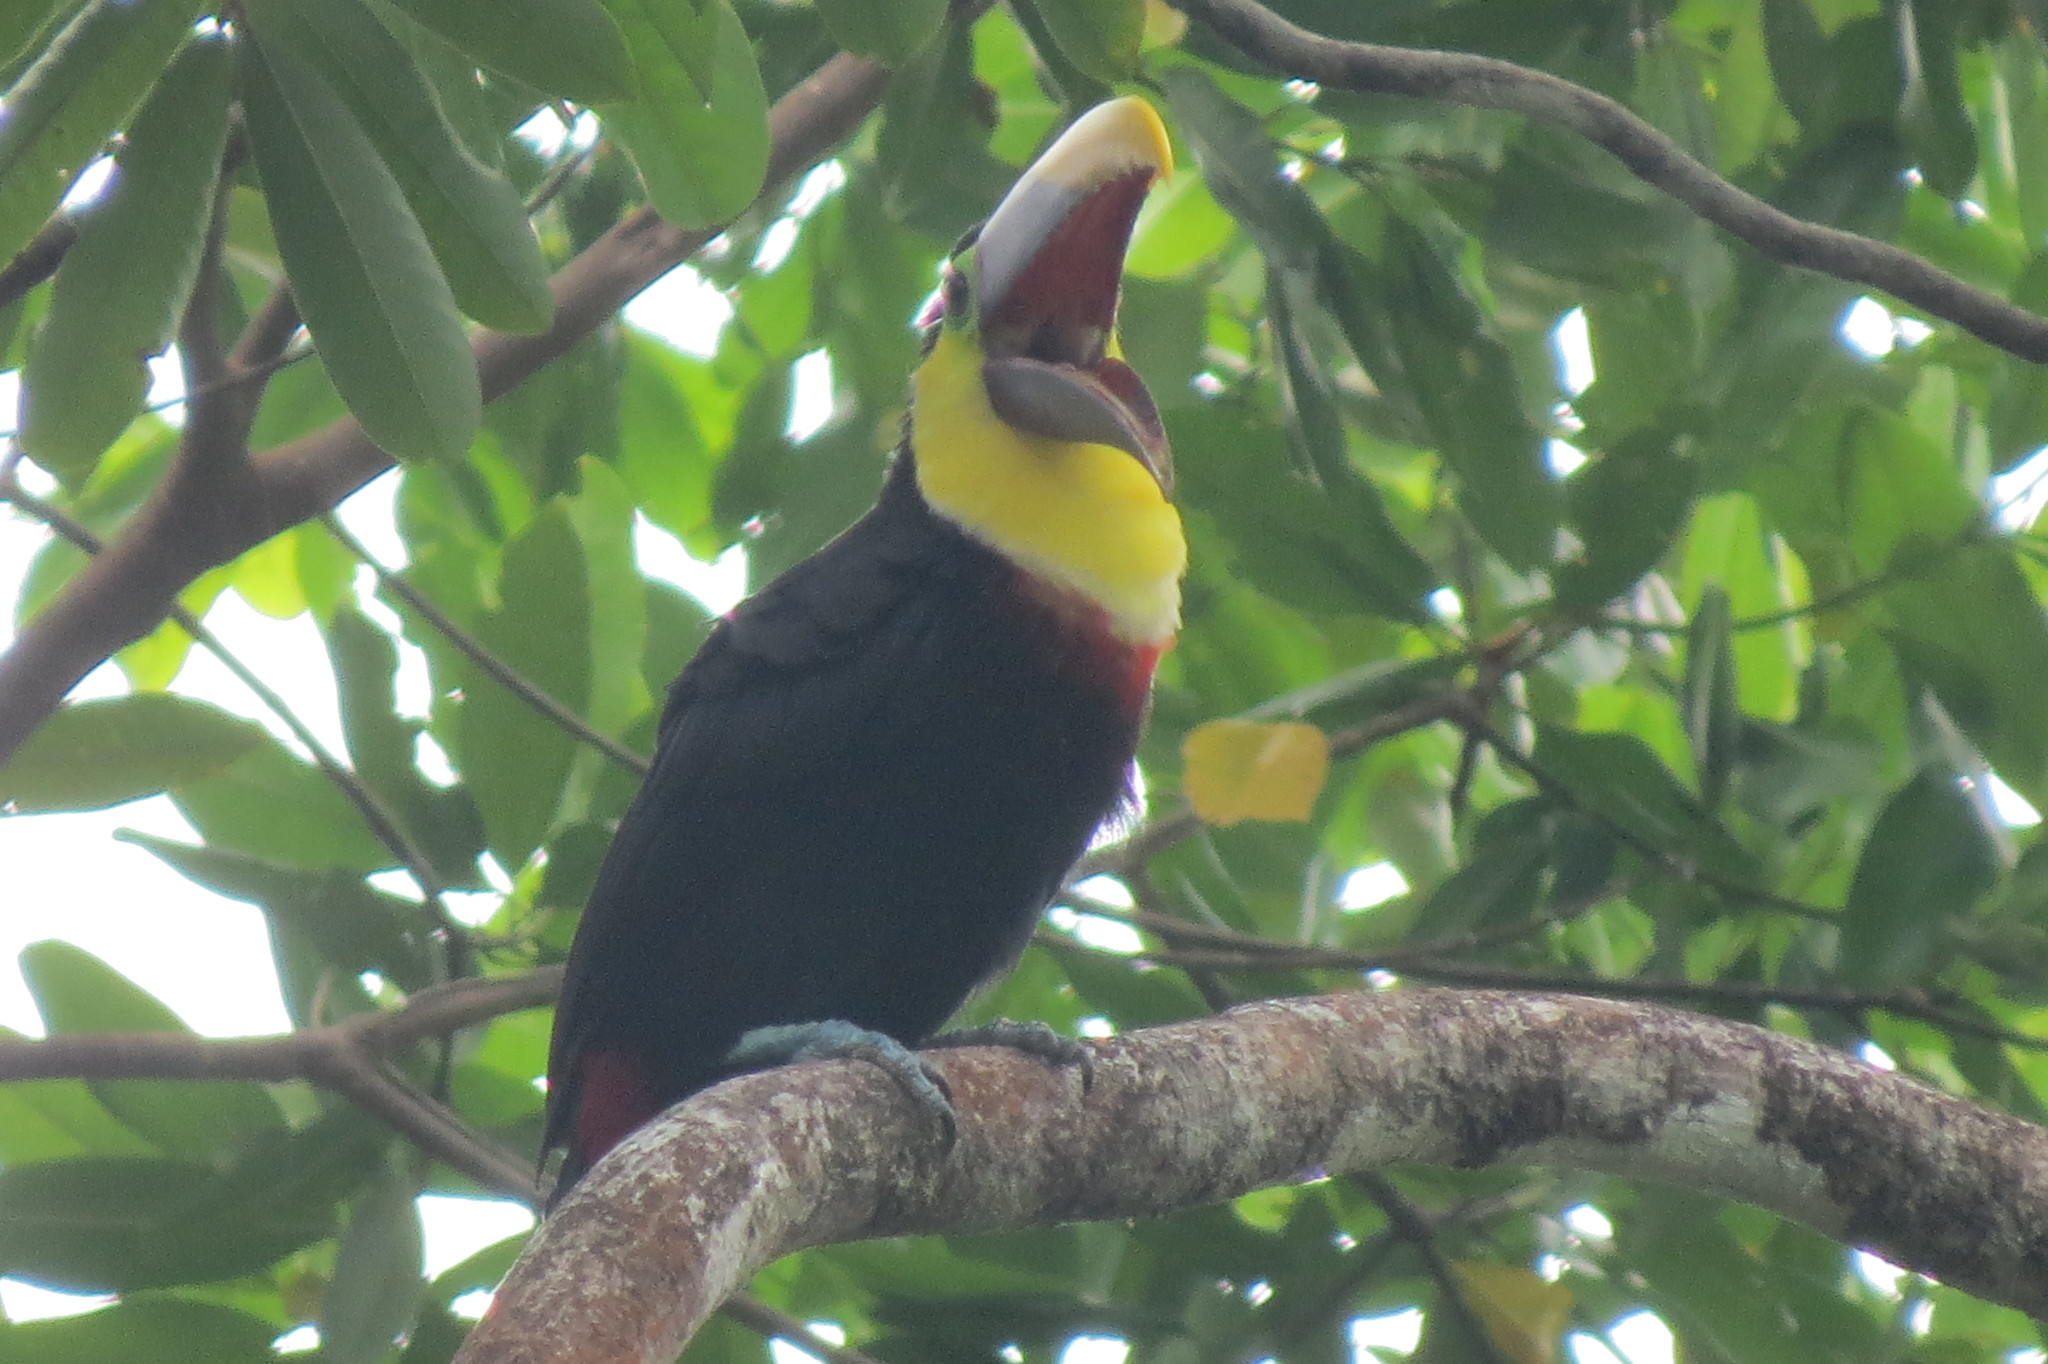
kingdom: Animalia
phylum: Chordata
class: Aves
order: Piciformes
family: Ramphastidae
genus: Ramphastos
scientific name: Ramphastos ambiguus
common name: Yellow-throated toucan
